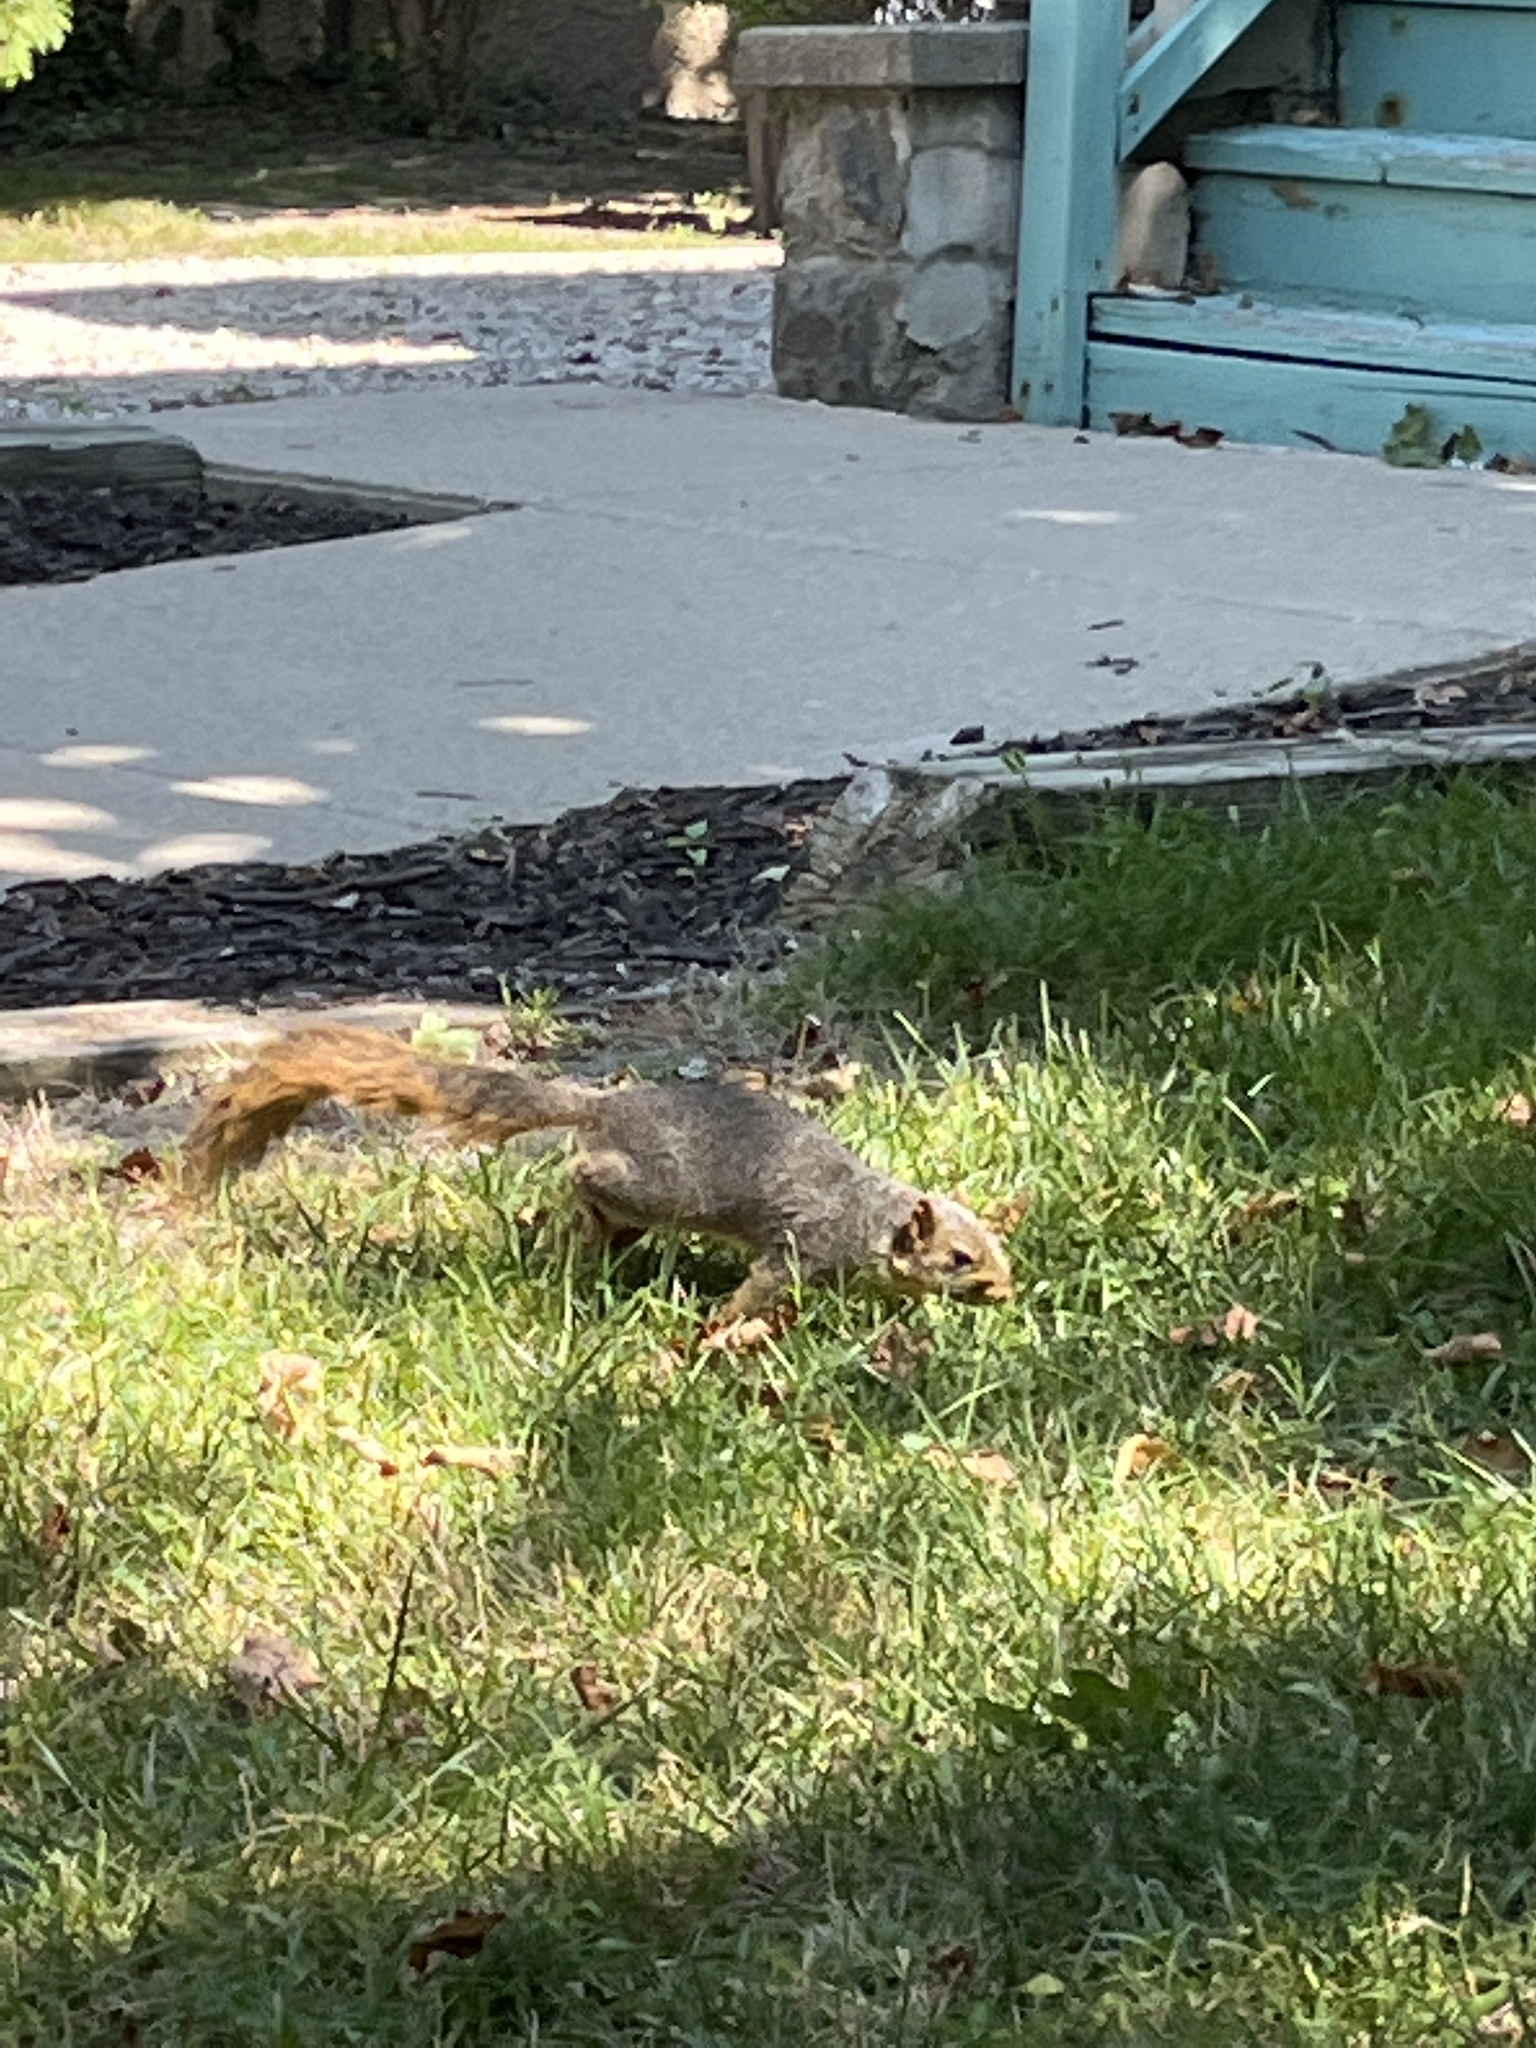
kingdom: Animalia
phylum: Chordata
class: Mammalia
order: Rodentia
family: Sciuridae
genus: Sciurus
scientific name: Sciurus niger
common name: Fox squirrel
